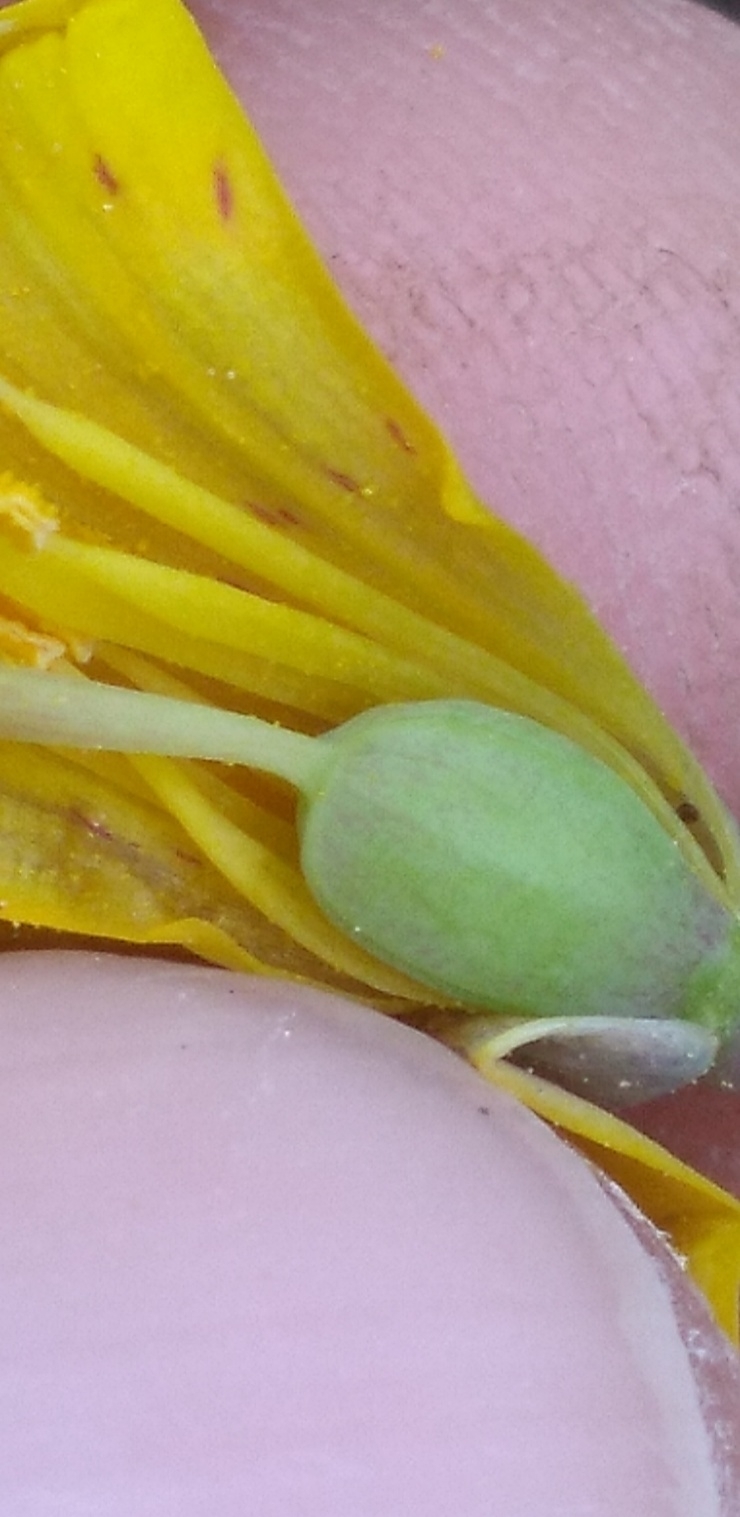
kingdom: Plantae
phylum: Tracheophyta
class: Liliopsida
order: Liliales
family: Liliaceae
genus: Erythronium
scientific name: Erythronium americanum
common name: Yellow adder's-tongue
